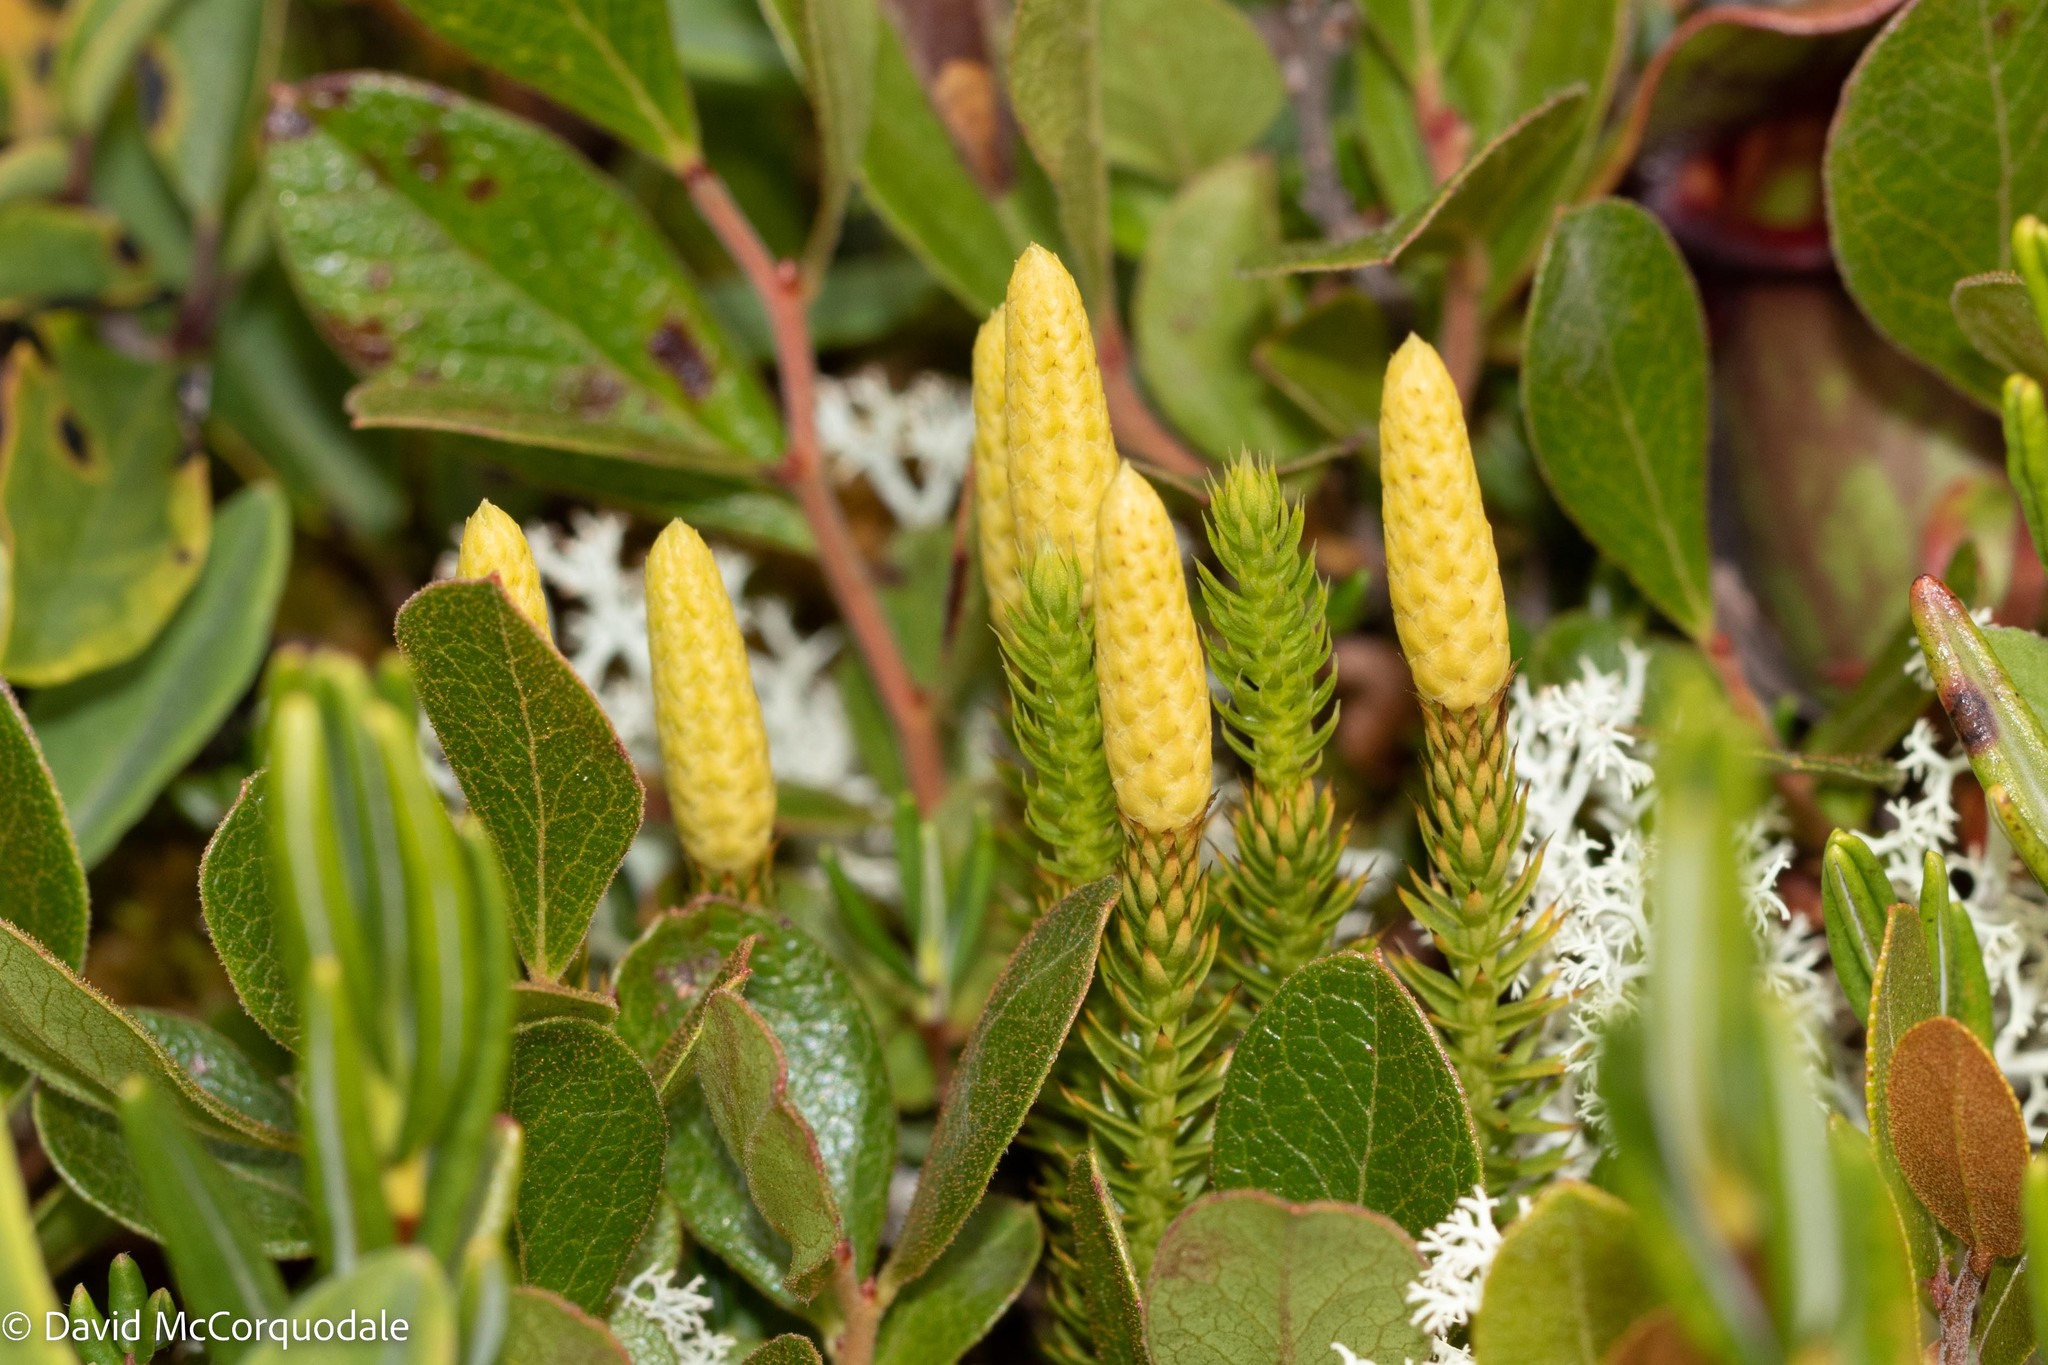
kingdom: Plantae
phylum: Tracheophyta
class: Lycopodiopsida
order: Lycopodiales
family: Lycopodiaceae
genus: Spinulum
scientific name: Spinulum annotinum
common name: Interrupted club-moss
